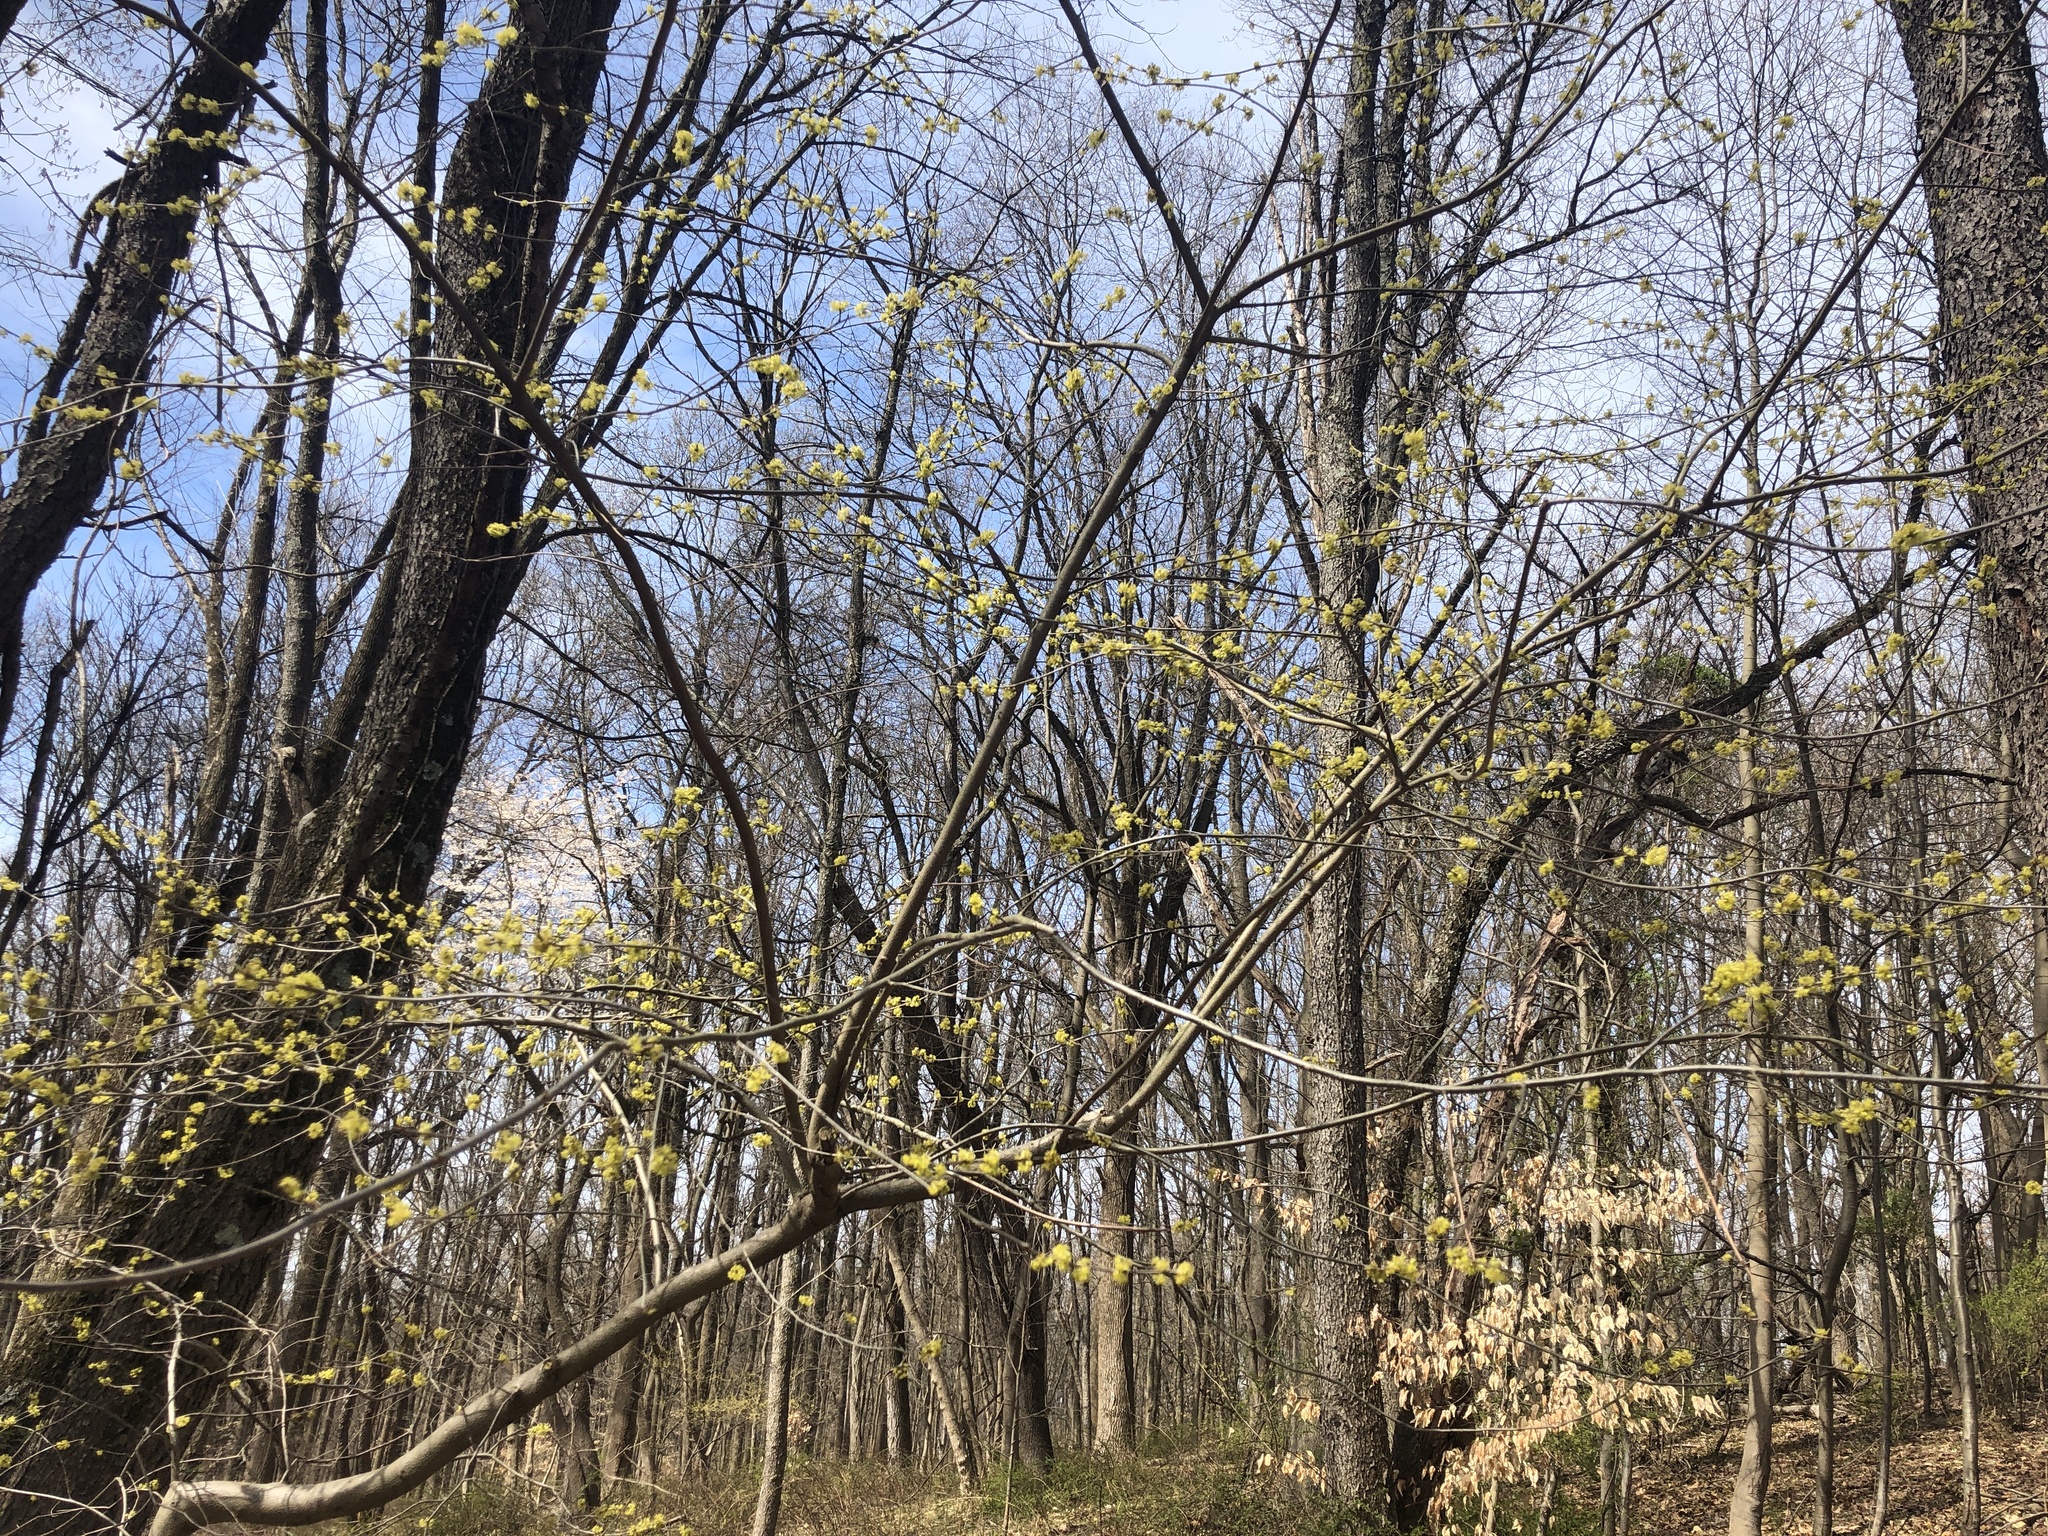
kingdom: Plantae
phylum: Tracheophyta
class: Magnoliopsida
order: Laurales
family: Lauraceae
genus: Lindera
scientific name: Lindera benzoin
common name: Spicebush
